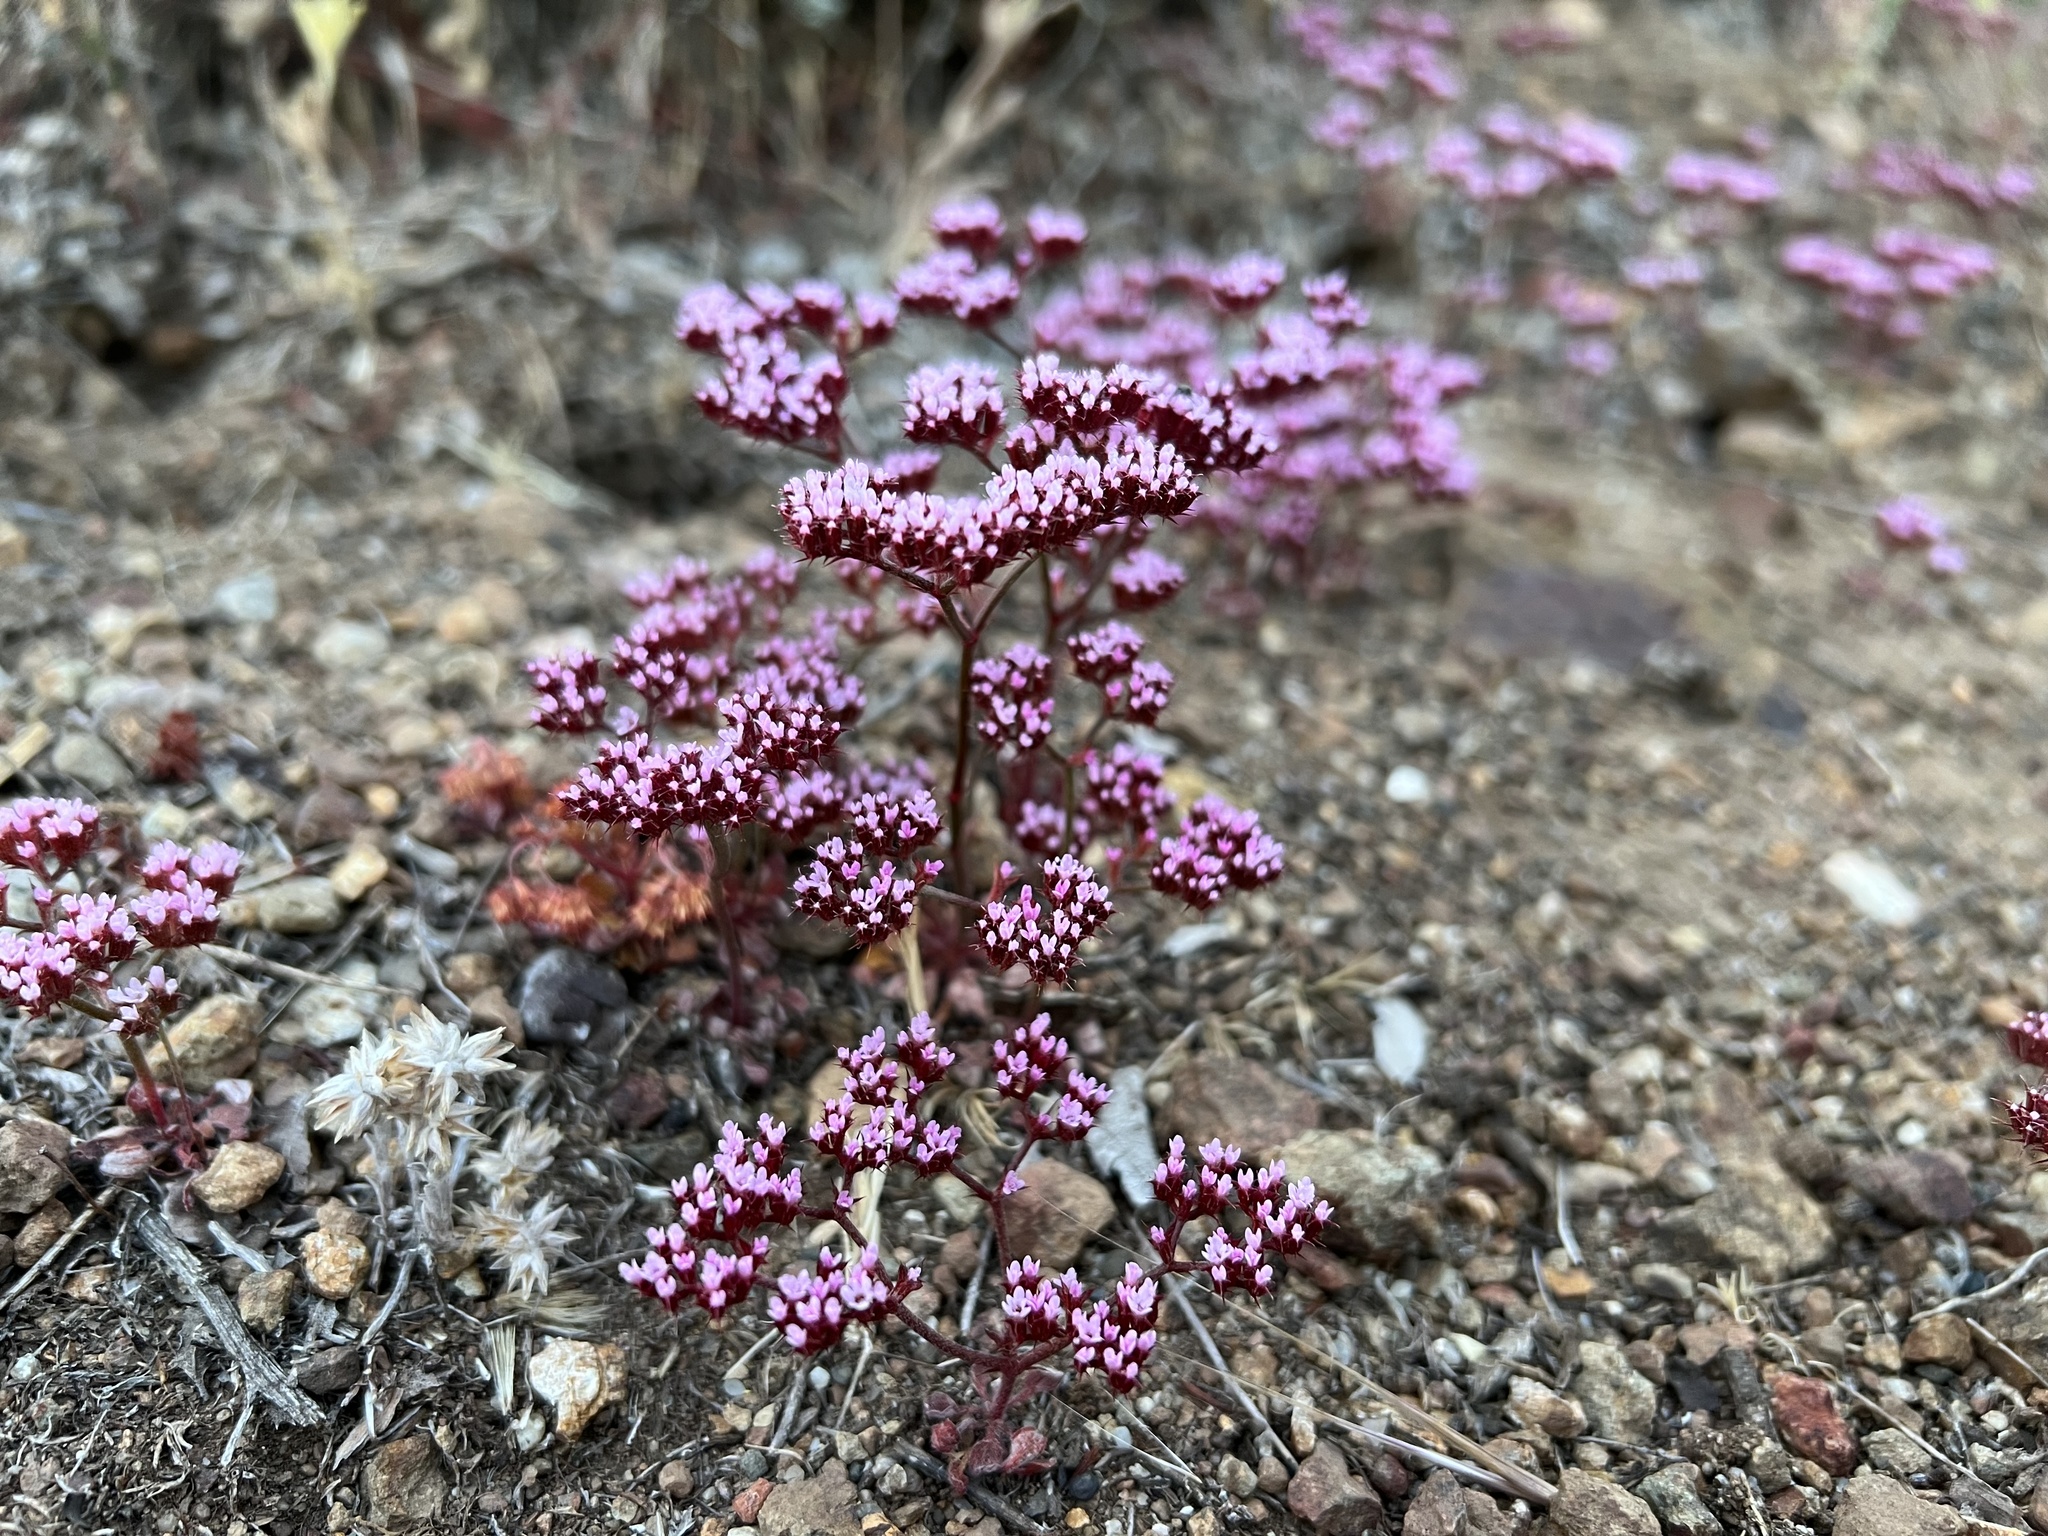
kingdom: Plantae
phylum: Tracheophyta
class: Magnoliopsida
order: Caryophyllales
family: Polygonaceae
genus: Chorizanthe
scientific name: Chorizanthe staticoides
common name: Turkish rugging
